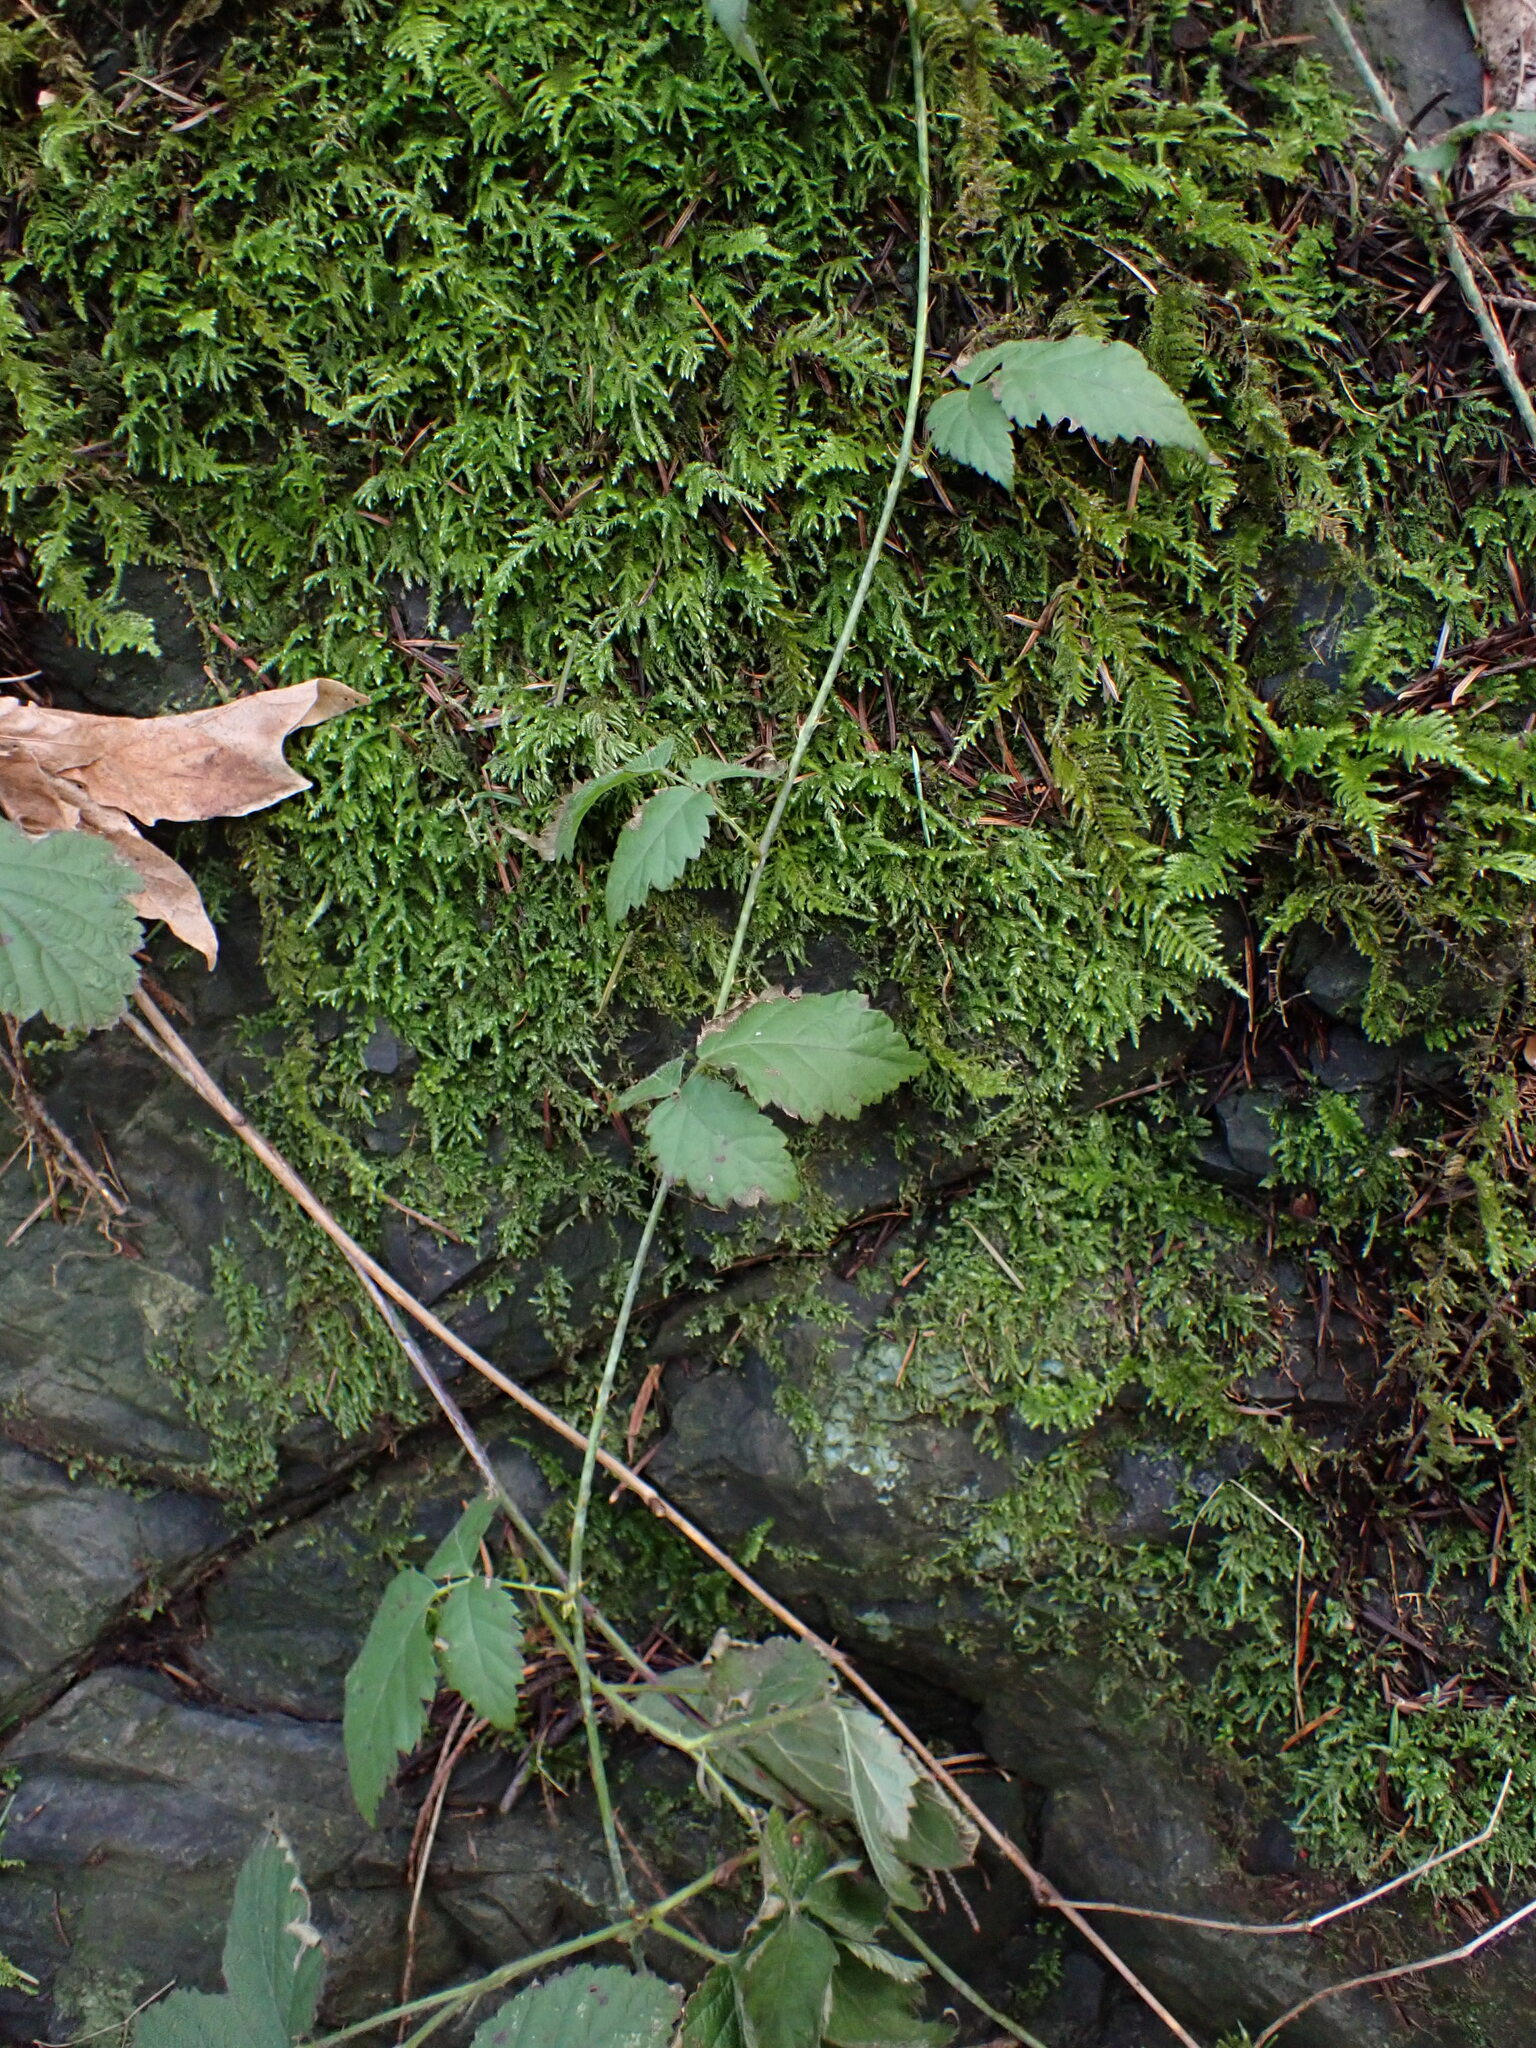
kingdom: Plantae
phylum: Tracheophyta
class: Magnoliopsida
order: Rosales
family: Rosaceae
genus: Rubus
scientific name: Rubus ursinus
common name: Pacific blackberry
